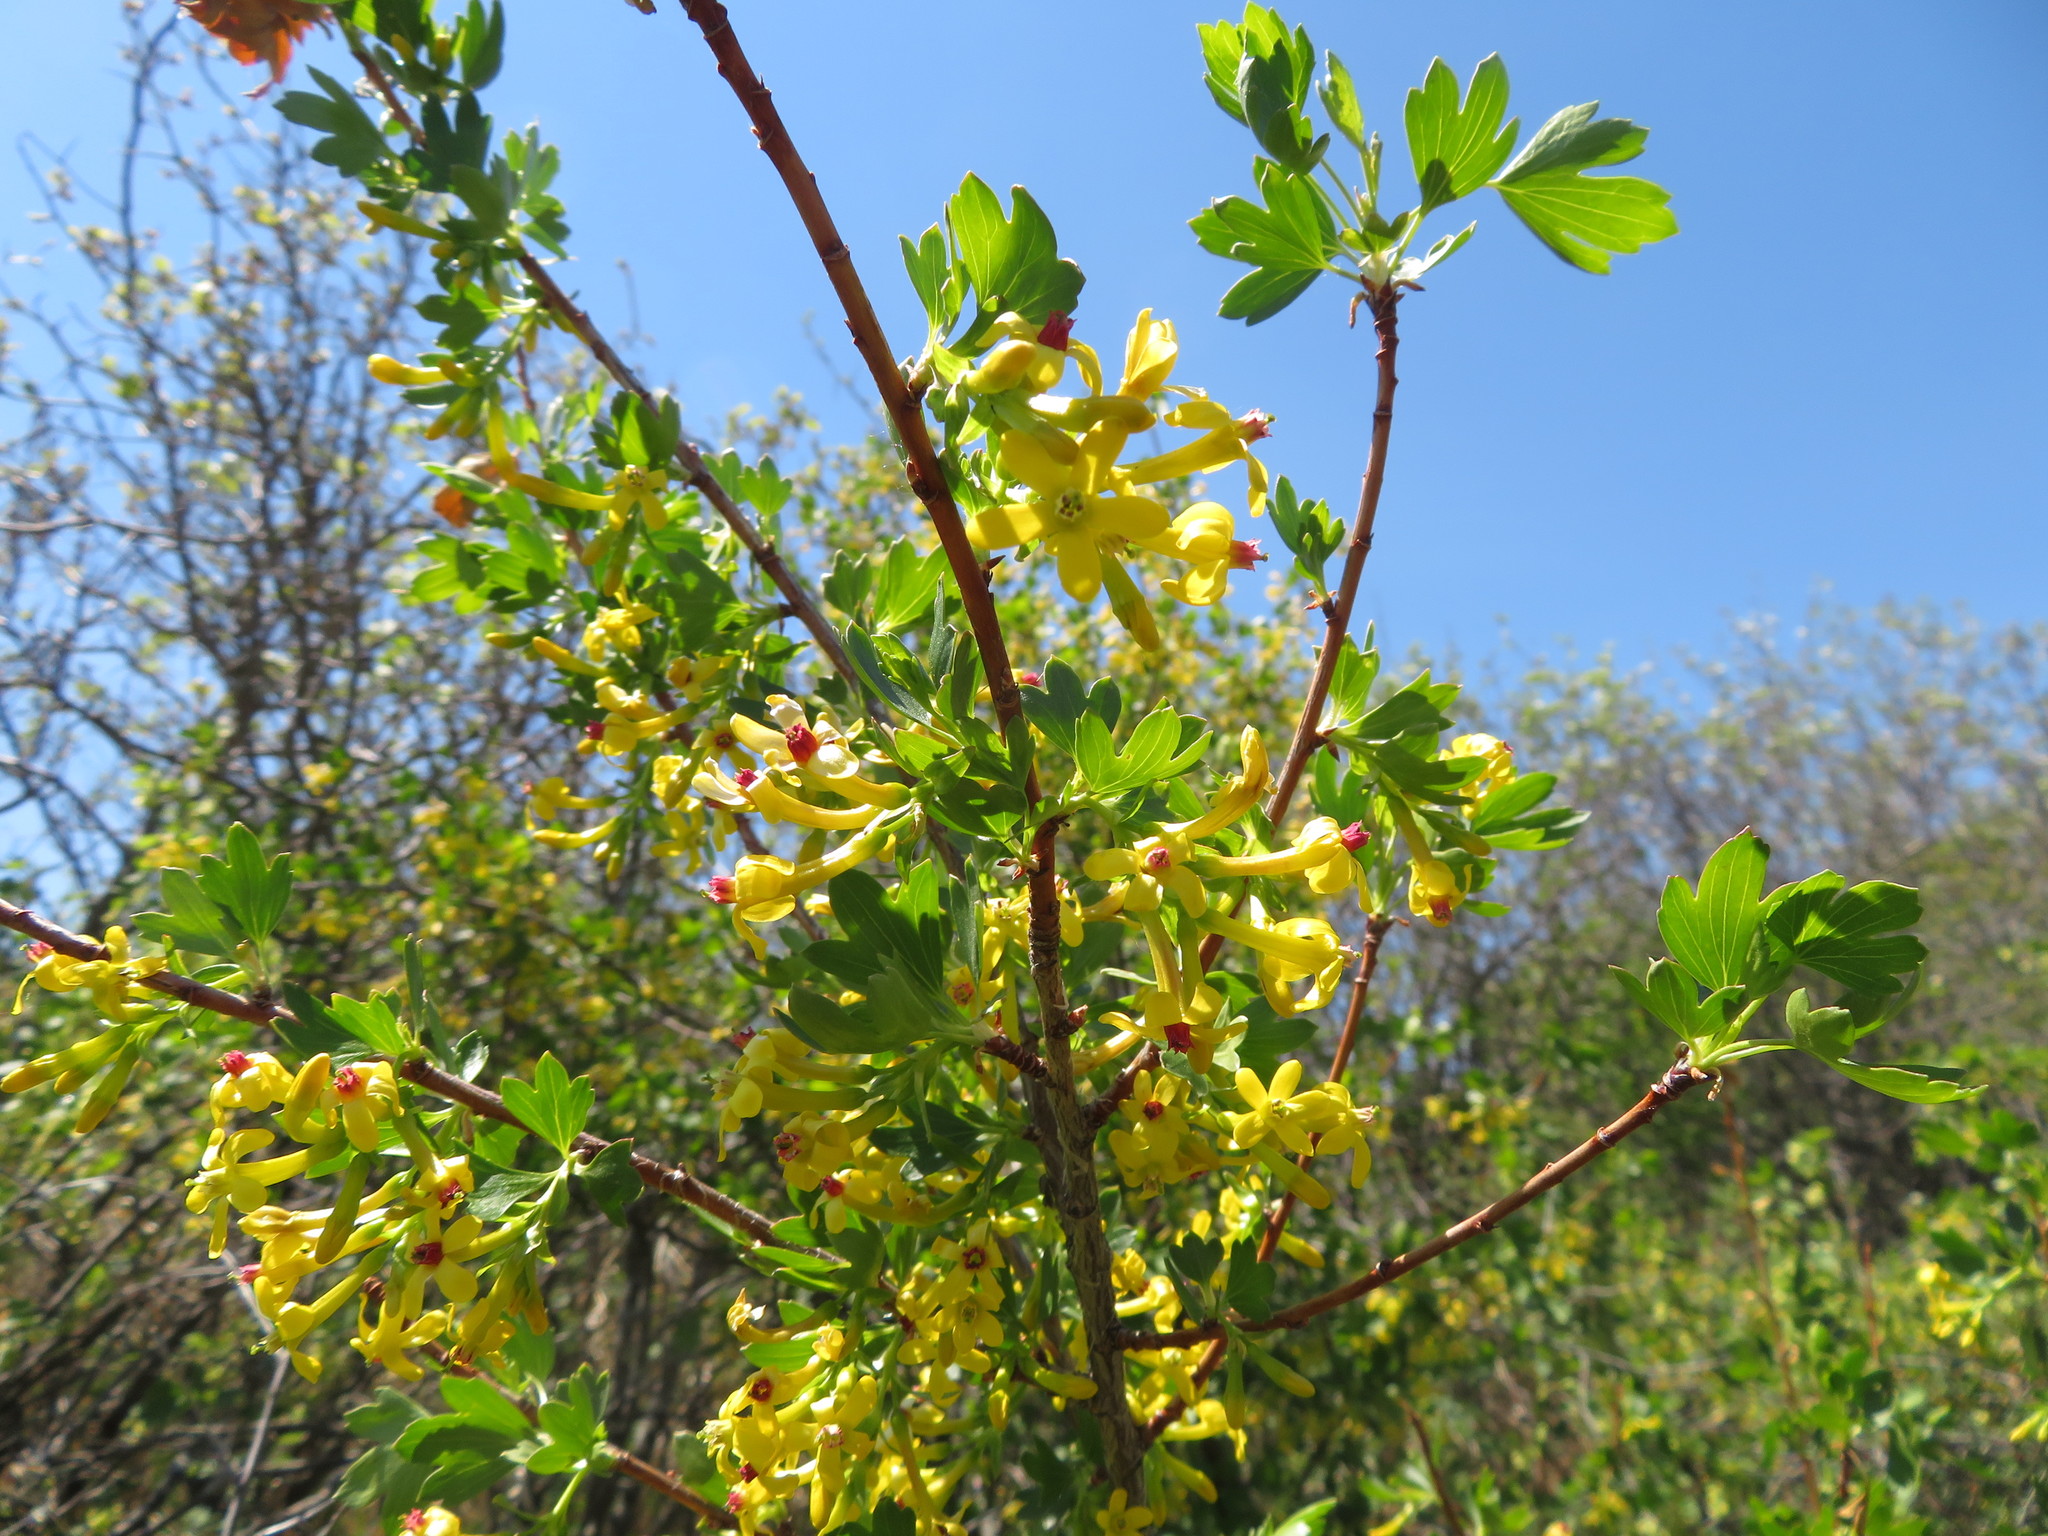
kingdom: Plantae
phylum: Tracheophyta
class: Magnoliopsida
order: Saxifragales
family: Grossulariaceae
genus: Ribes
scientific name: Ribes aureum
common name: Golden currant
